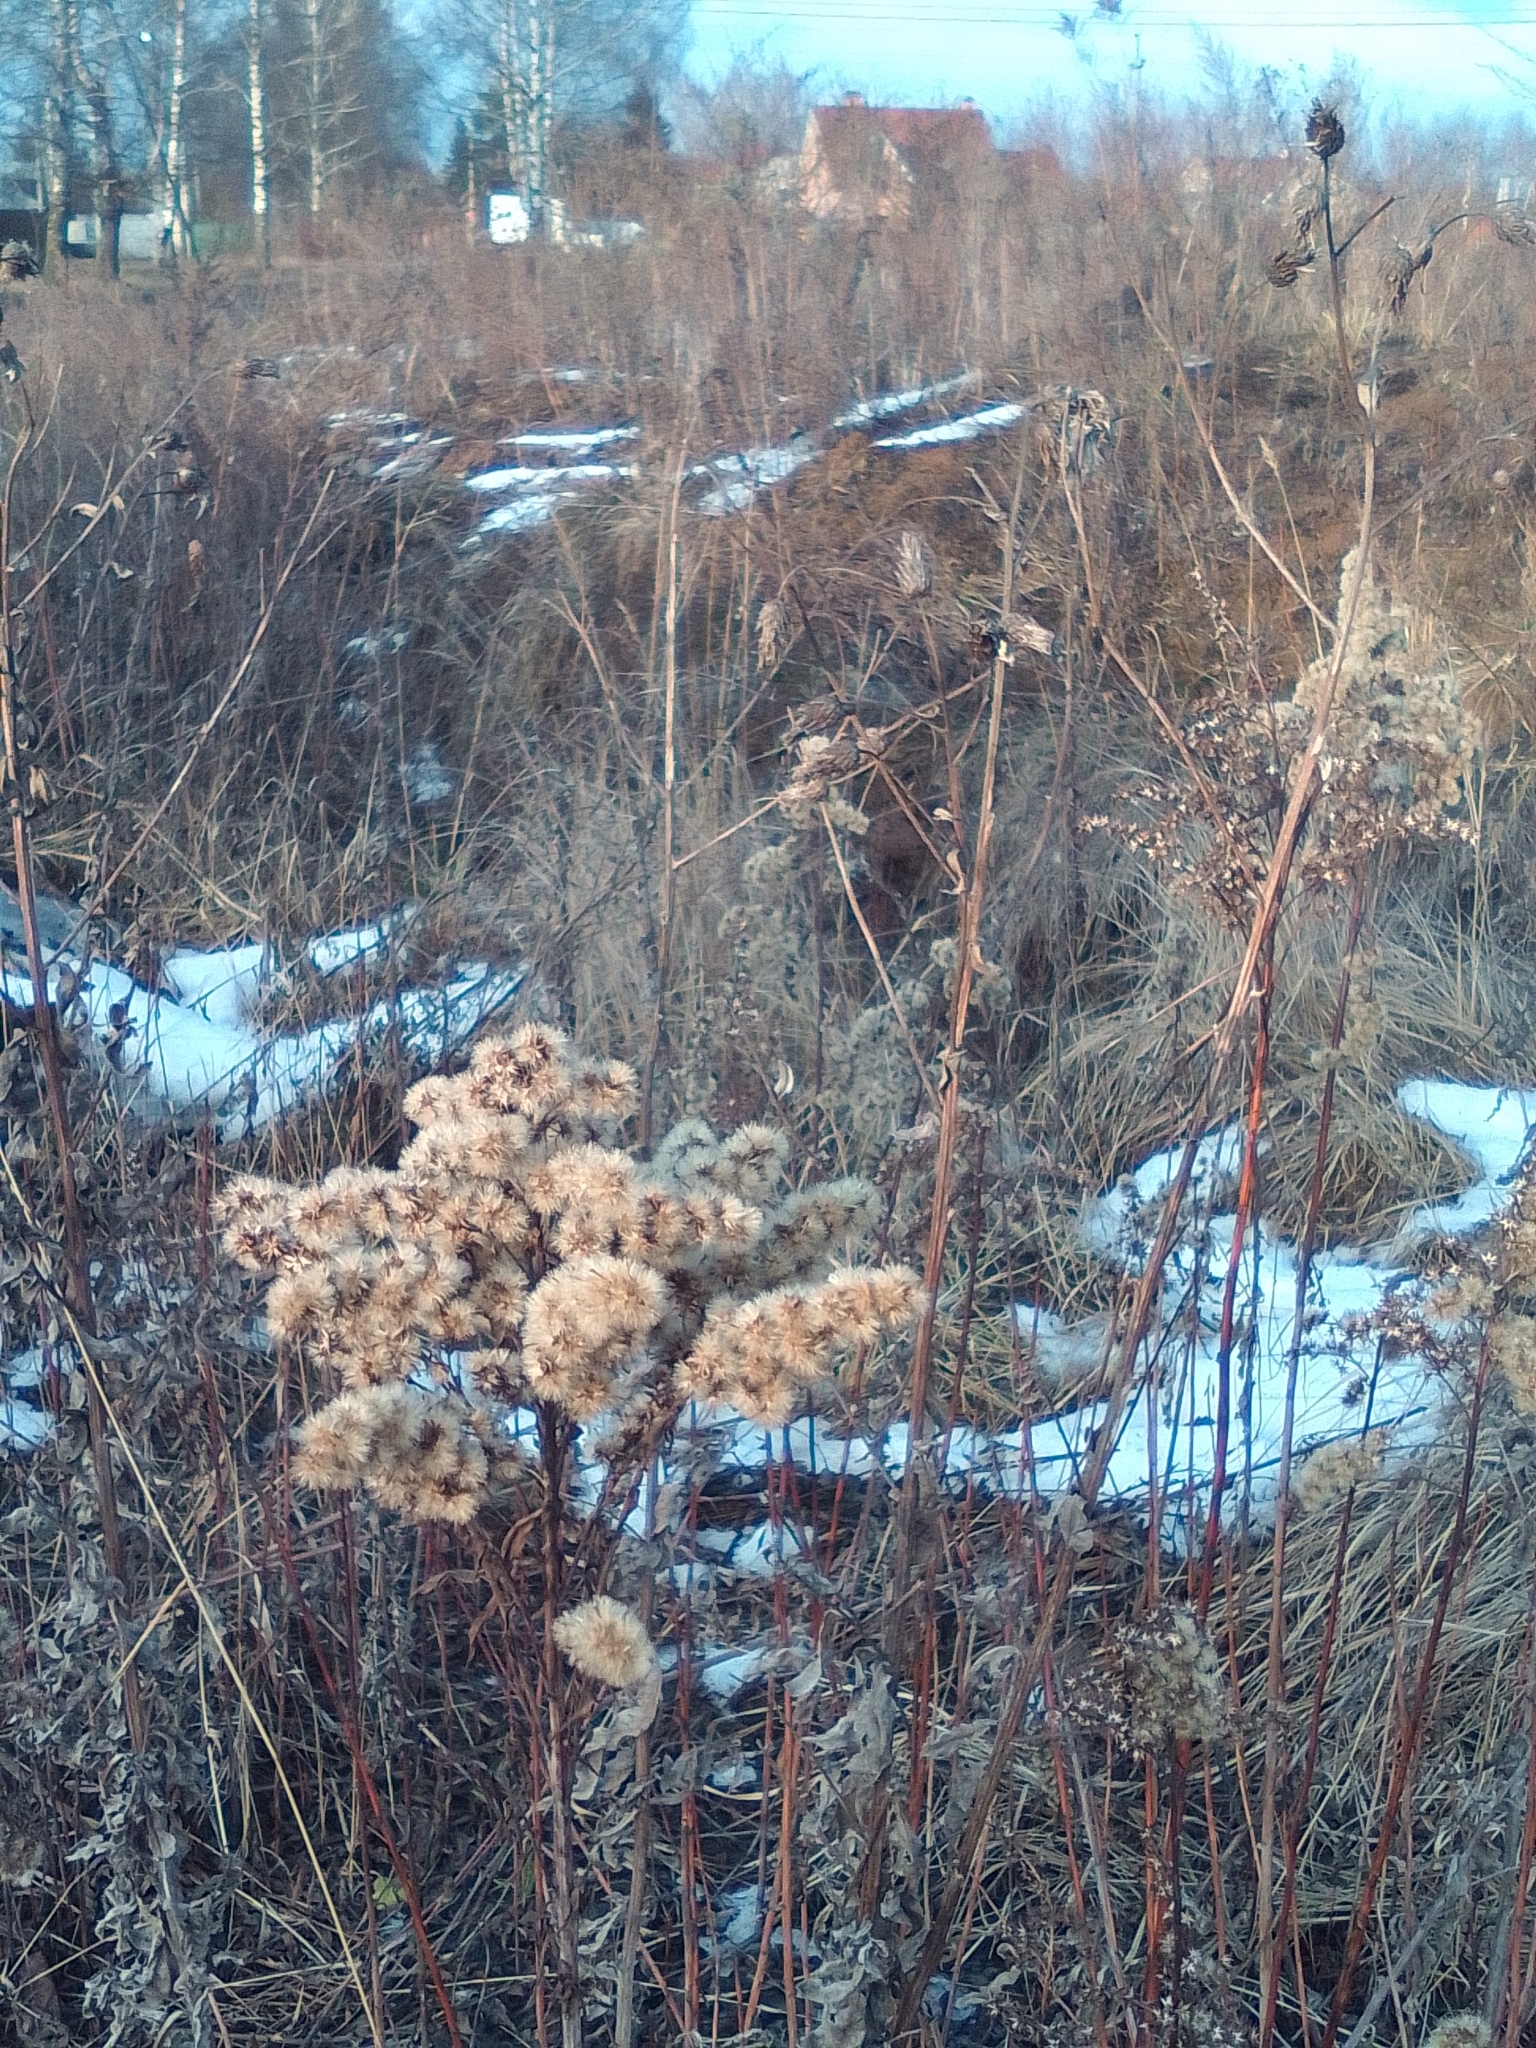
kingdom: Plantae
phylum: Tracheophyta
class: Magnoliopsida
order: Asterales
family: Asteraceae
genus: Solidago
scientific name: Solidago gigantea
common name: Giant goldenrod
